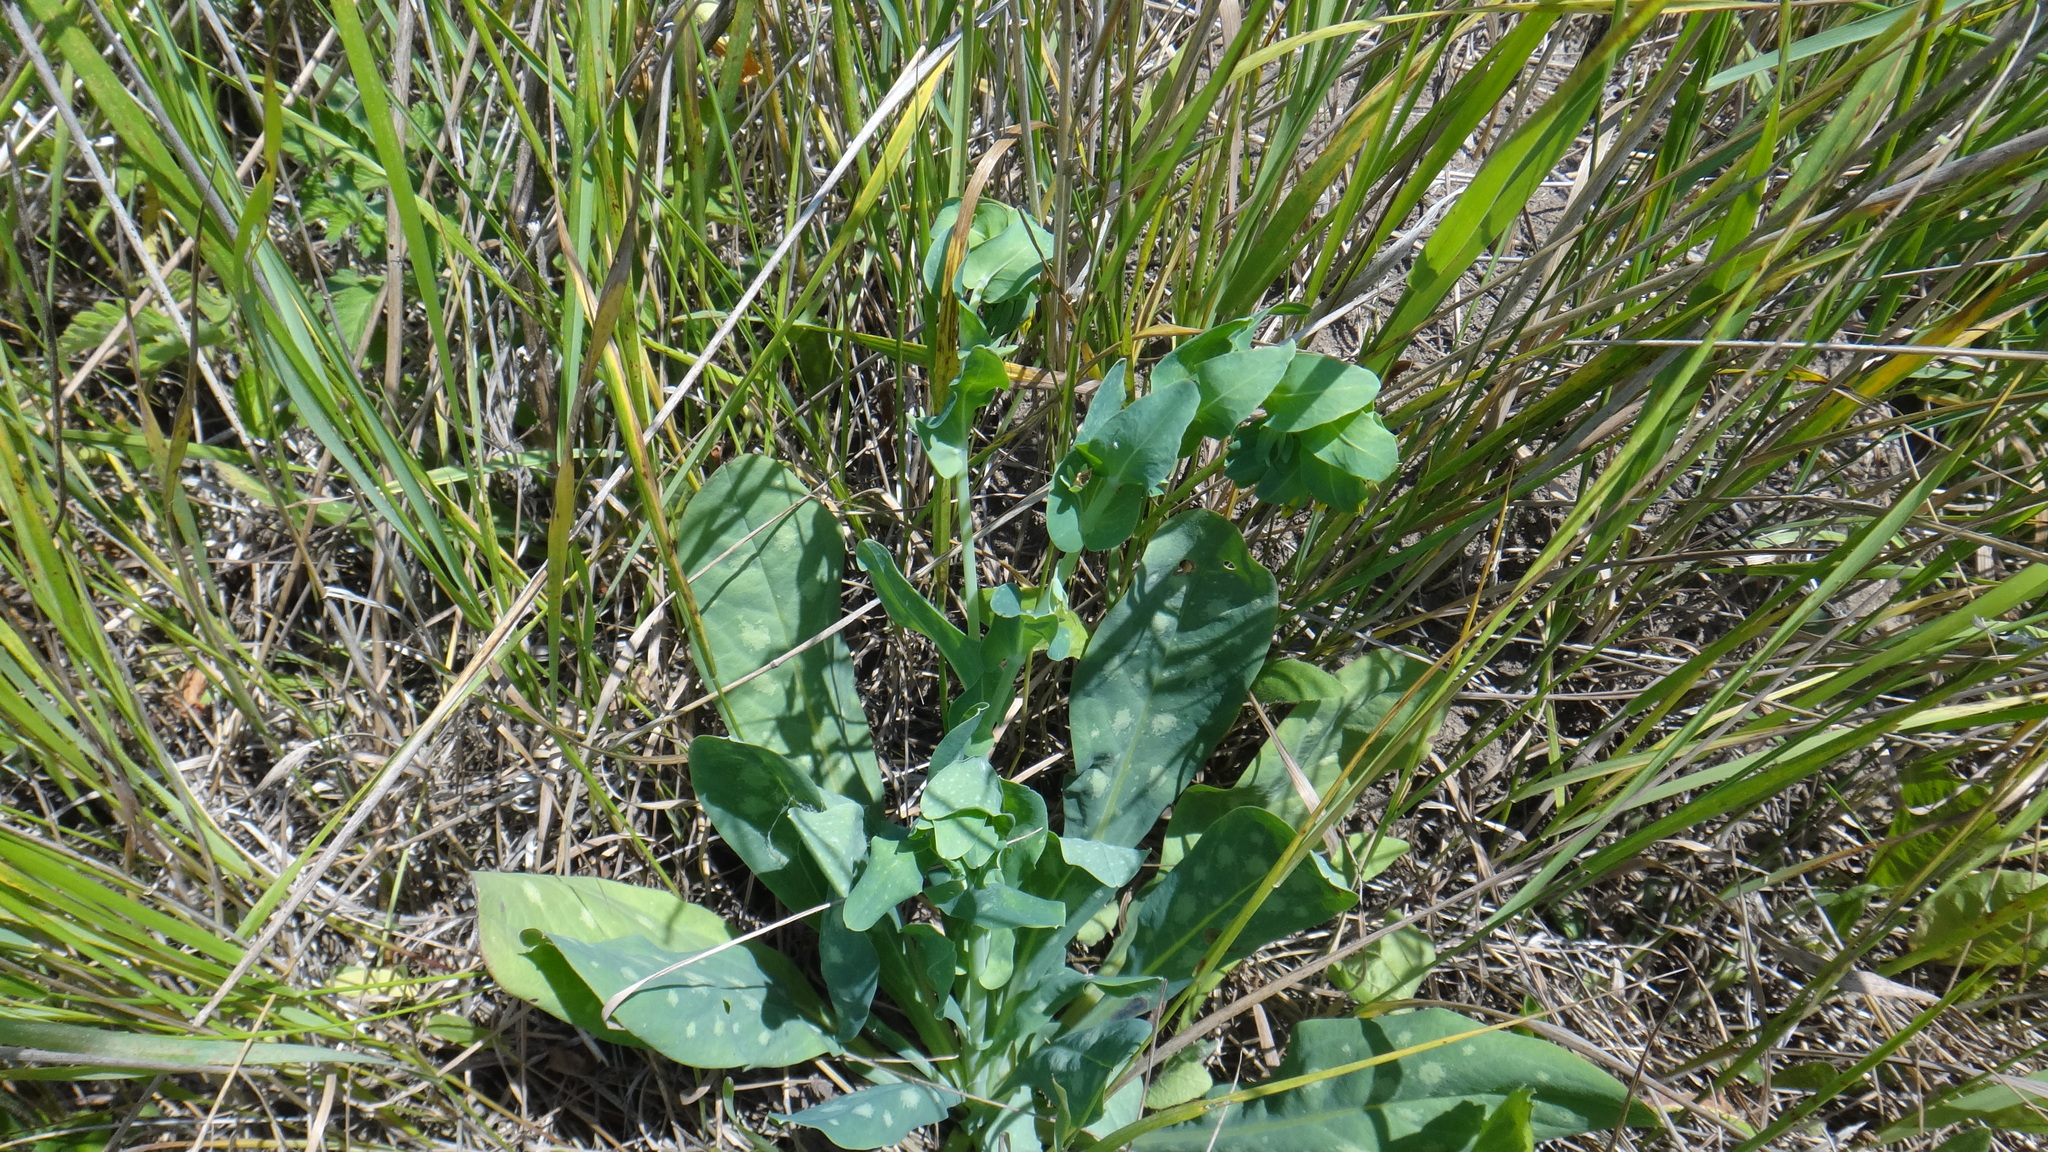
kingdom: Plantae
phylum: Tracheophyta
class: Magnoliopsida
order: Boraginales
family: Boraginaceae
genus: Cerinthe
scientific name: Cerinthe minor
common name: Lesser honeywort
